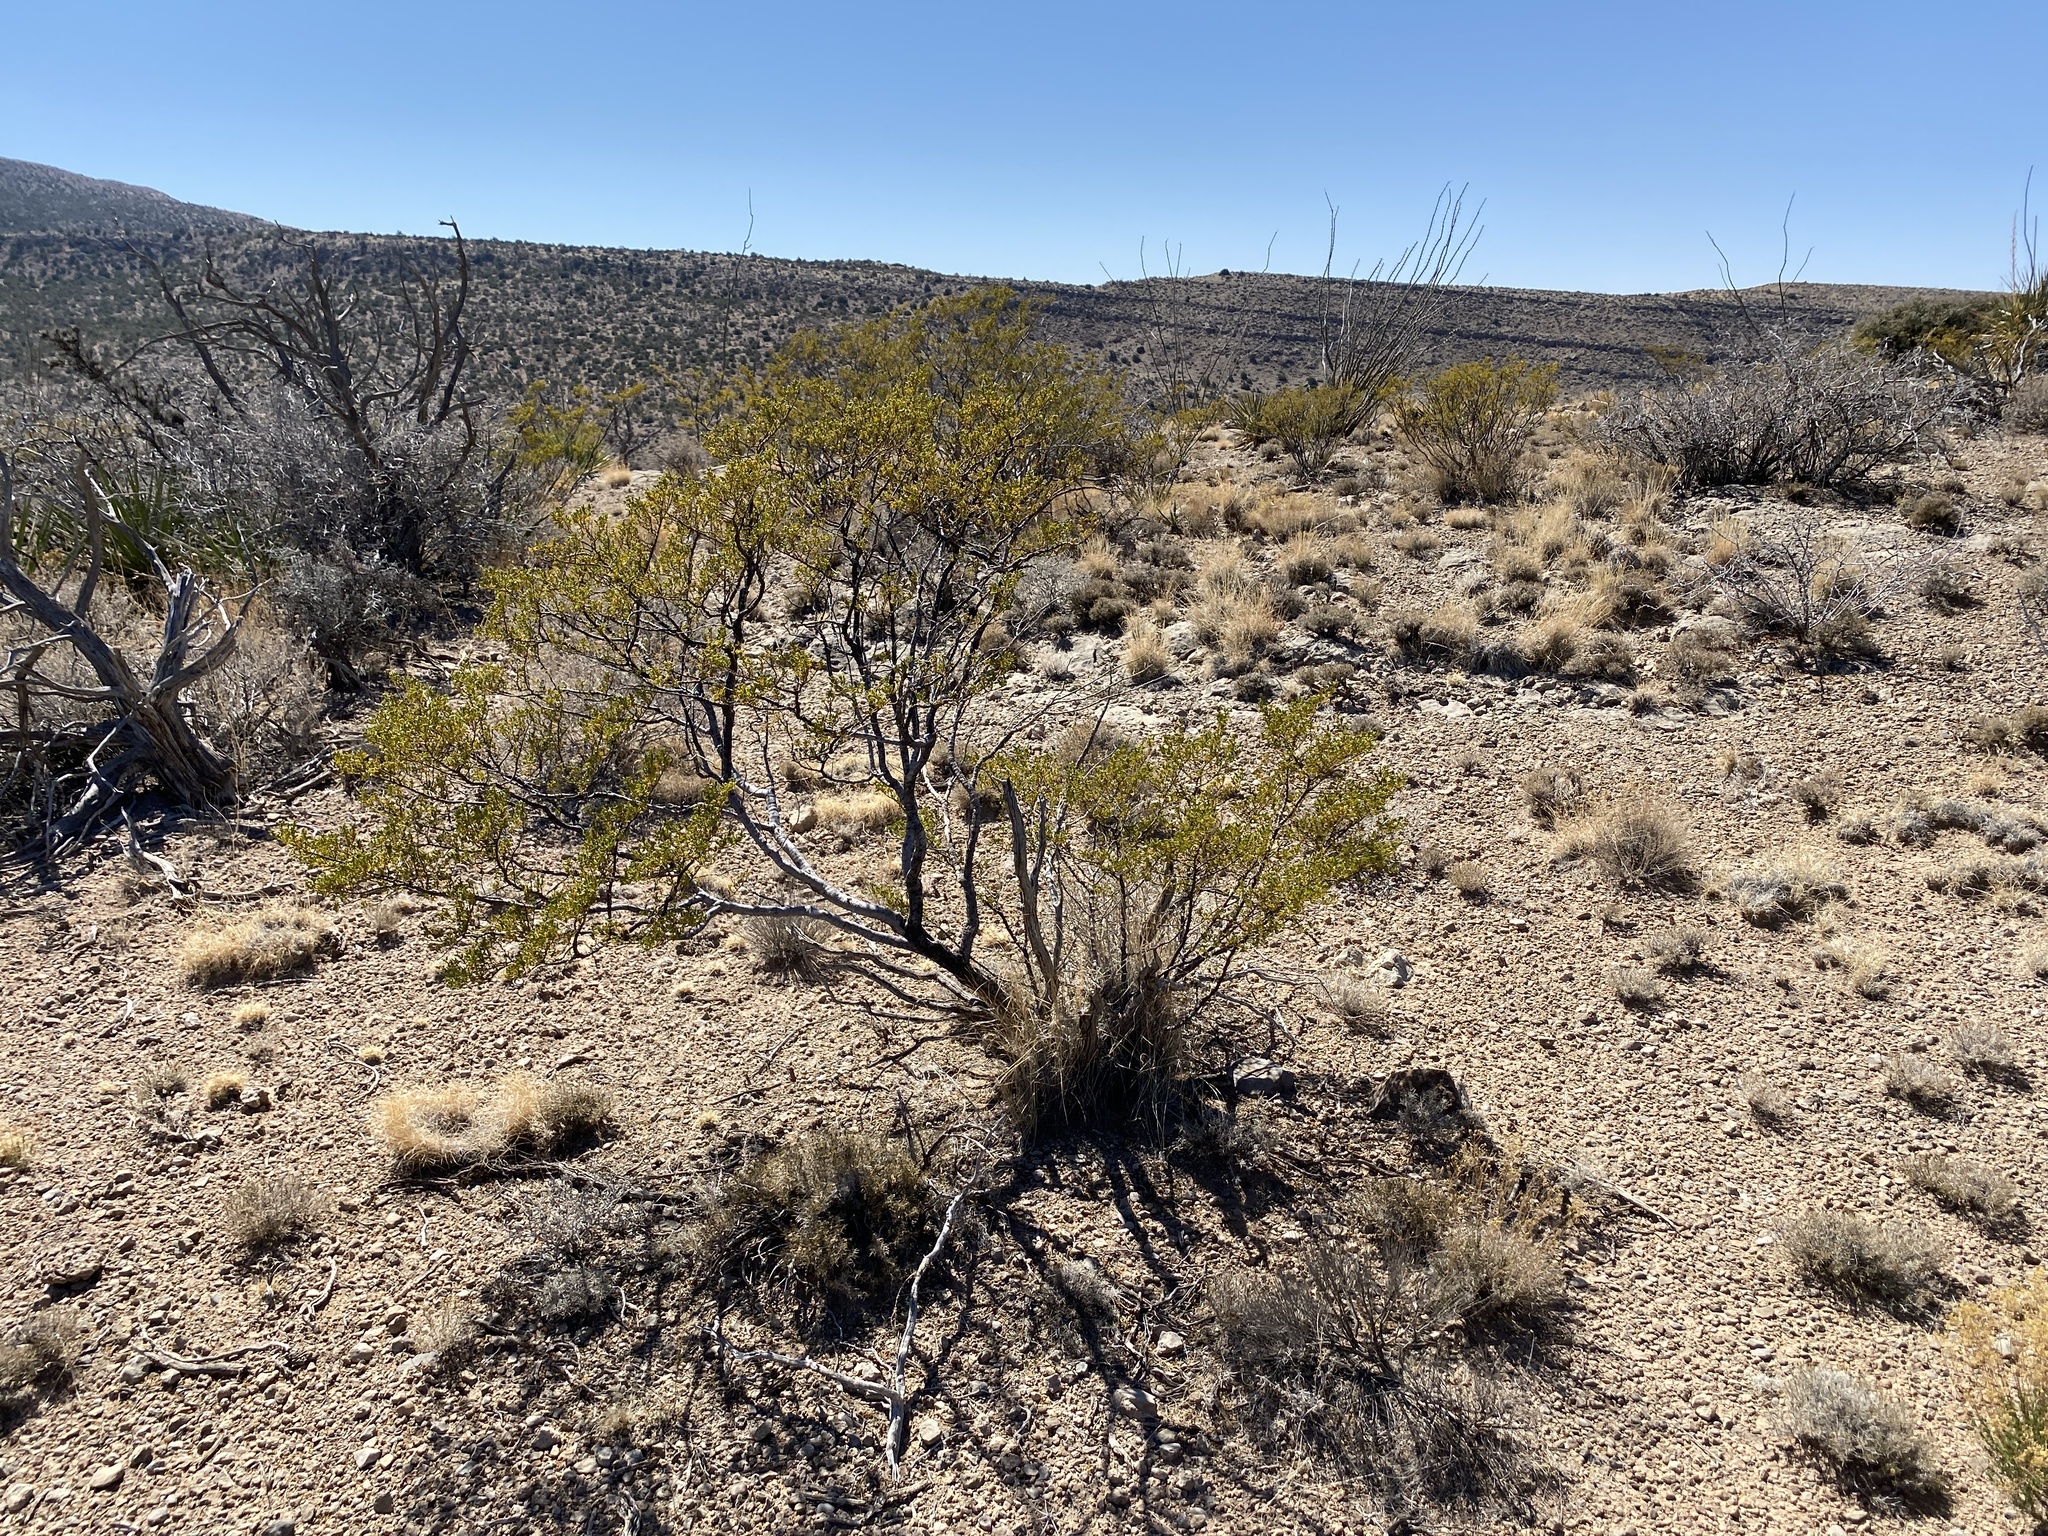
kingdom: Plantae
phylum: Tracheophyta
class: Magnoliopsida
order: Zygophyllales
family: Zygophyllaceae
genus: Larrea
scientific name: Larrea tridentata
